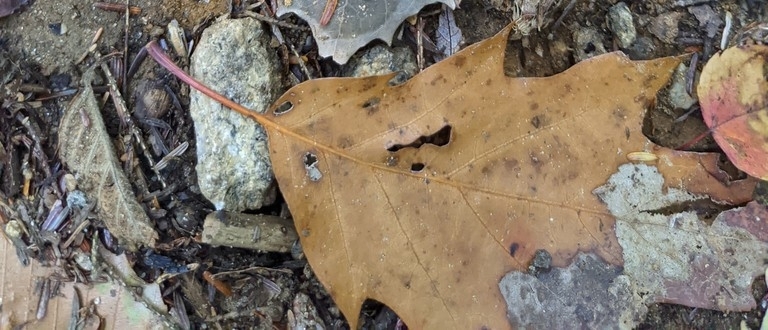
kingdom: Plantae
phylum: Tracheophyta
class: Magnoliopsida
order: Fagales
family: Fagaceae
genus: Quercus
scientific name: Quercus rubra
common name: Red oak
